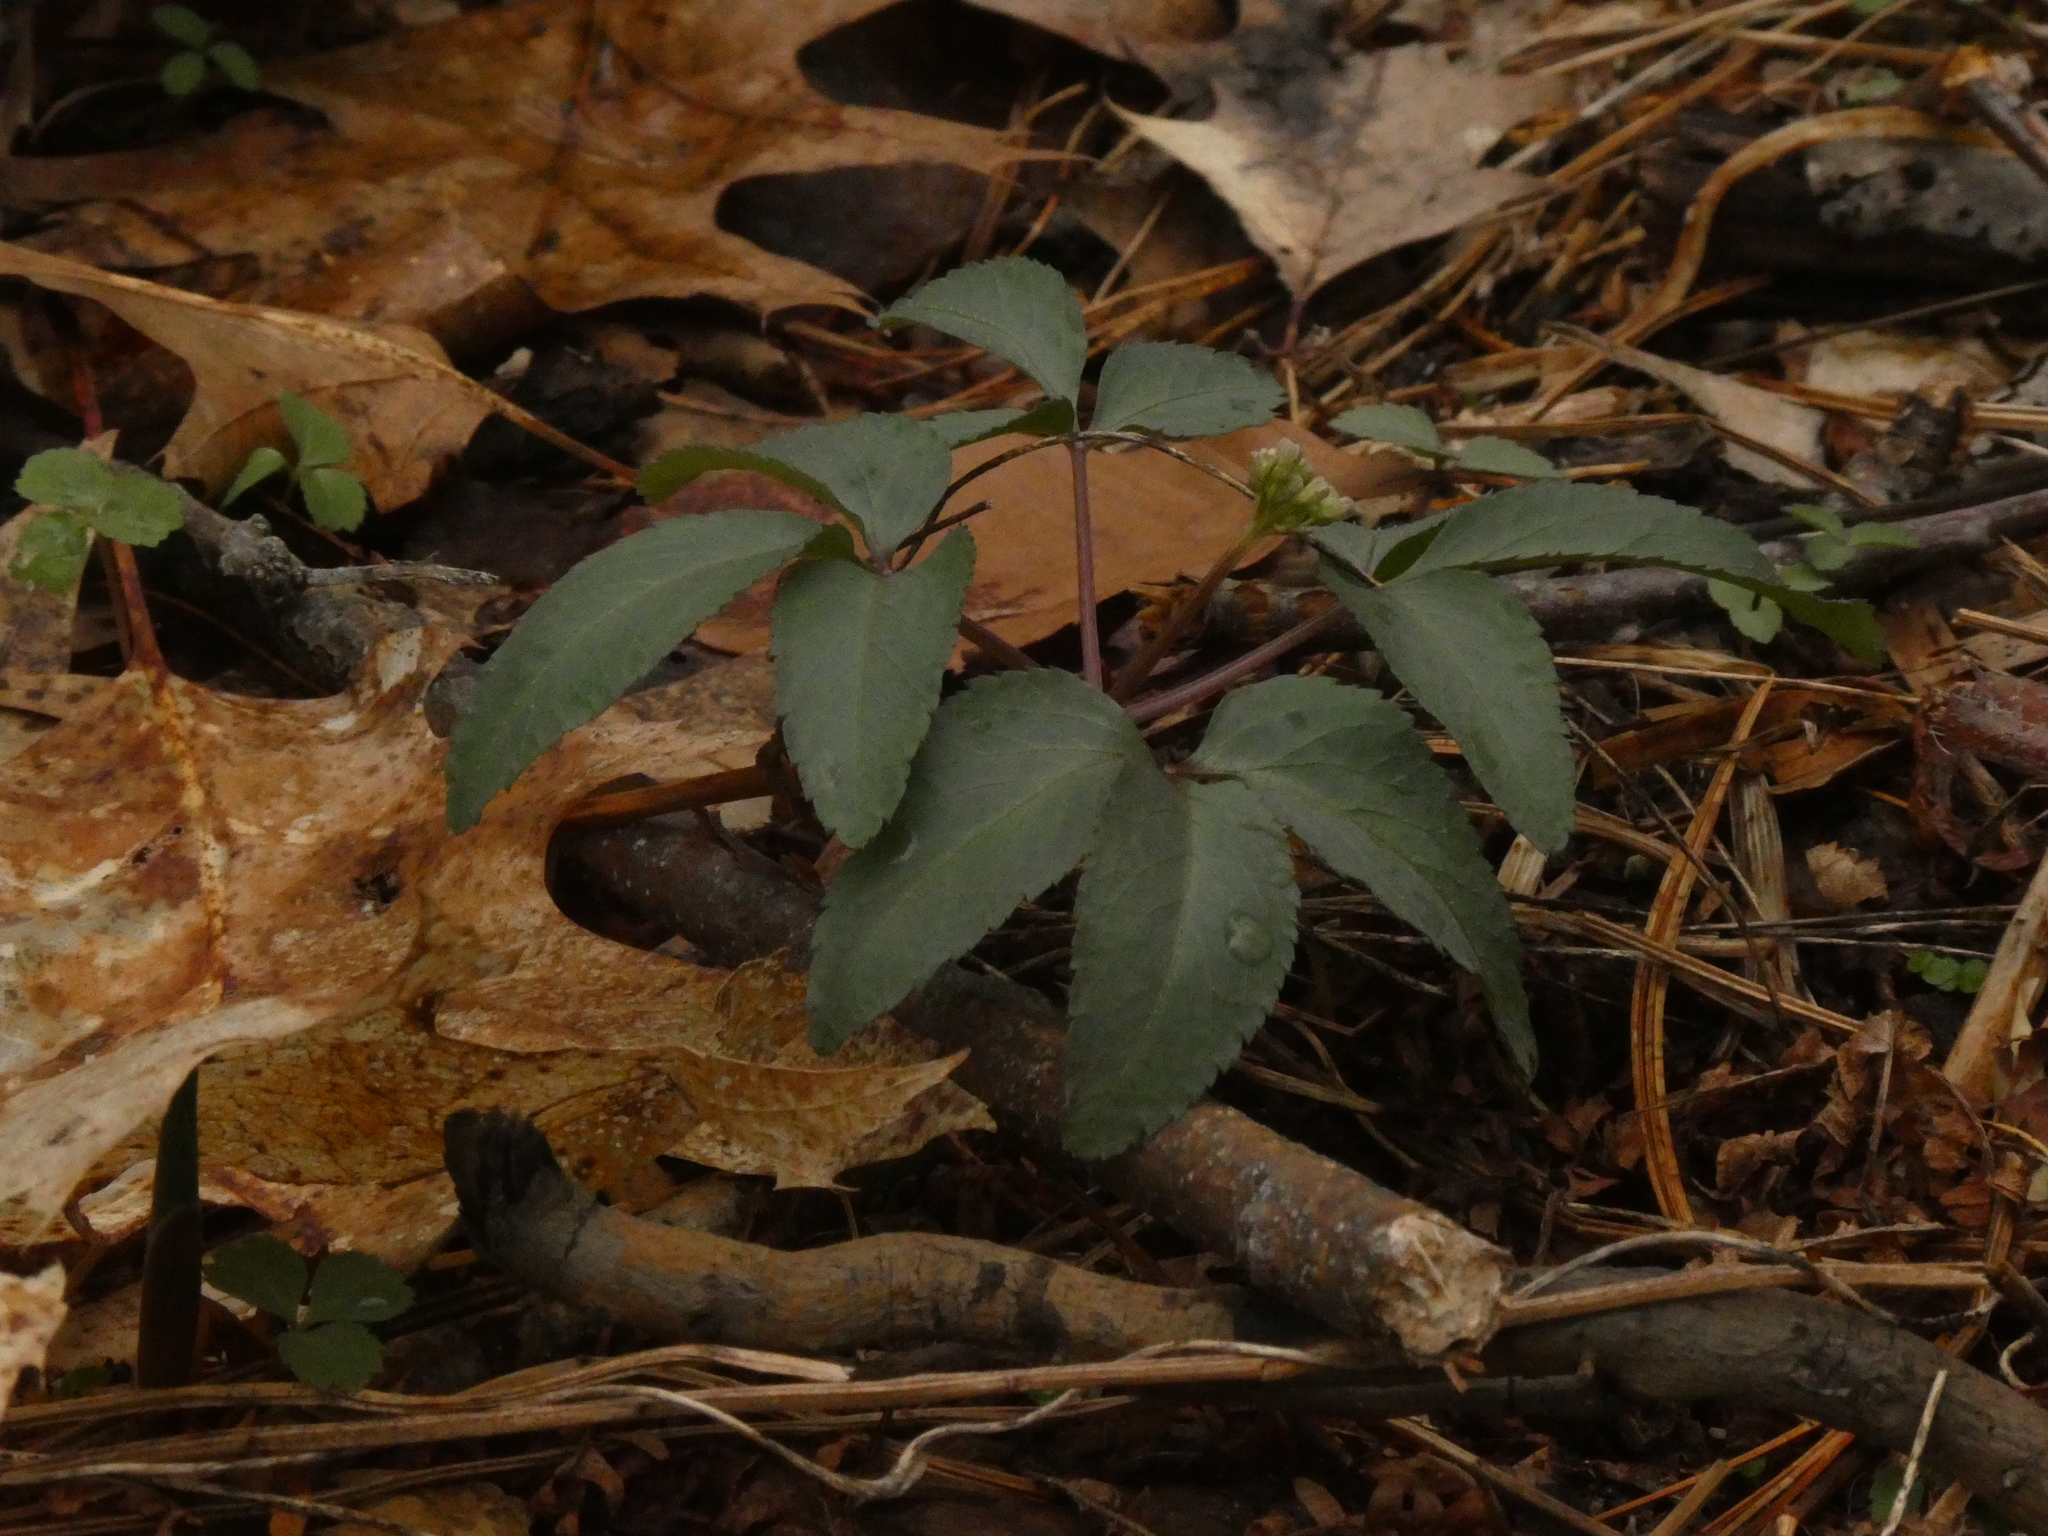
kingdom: Plantae
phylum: Tracheophyta
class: Magnoliopsida
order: Apiales
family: Araliaceae
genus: Panax
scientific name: Panax trifolius
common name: Dwarf ginseng
